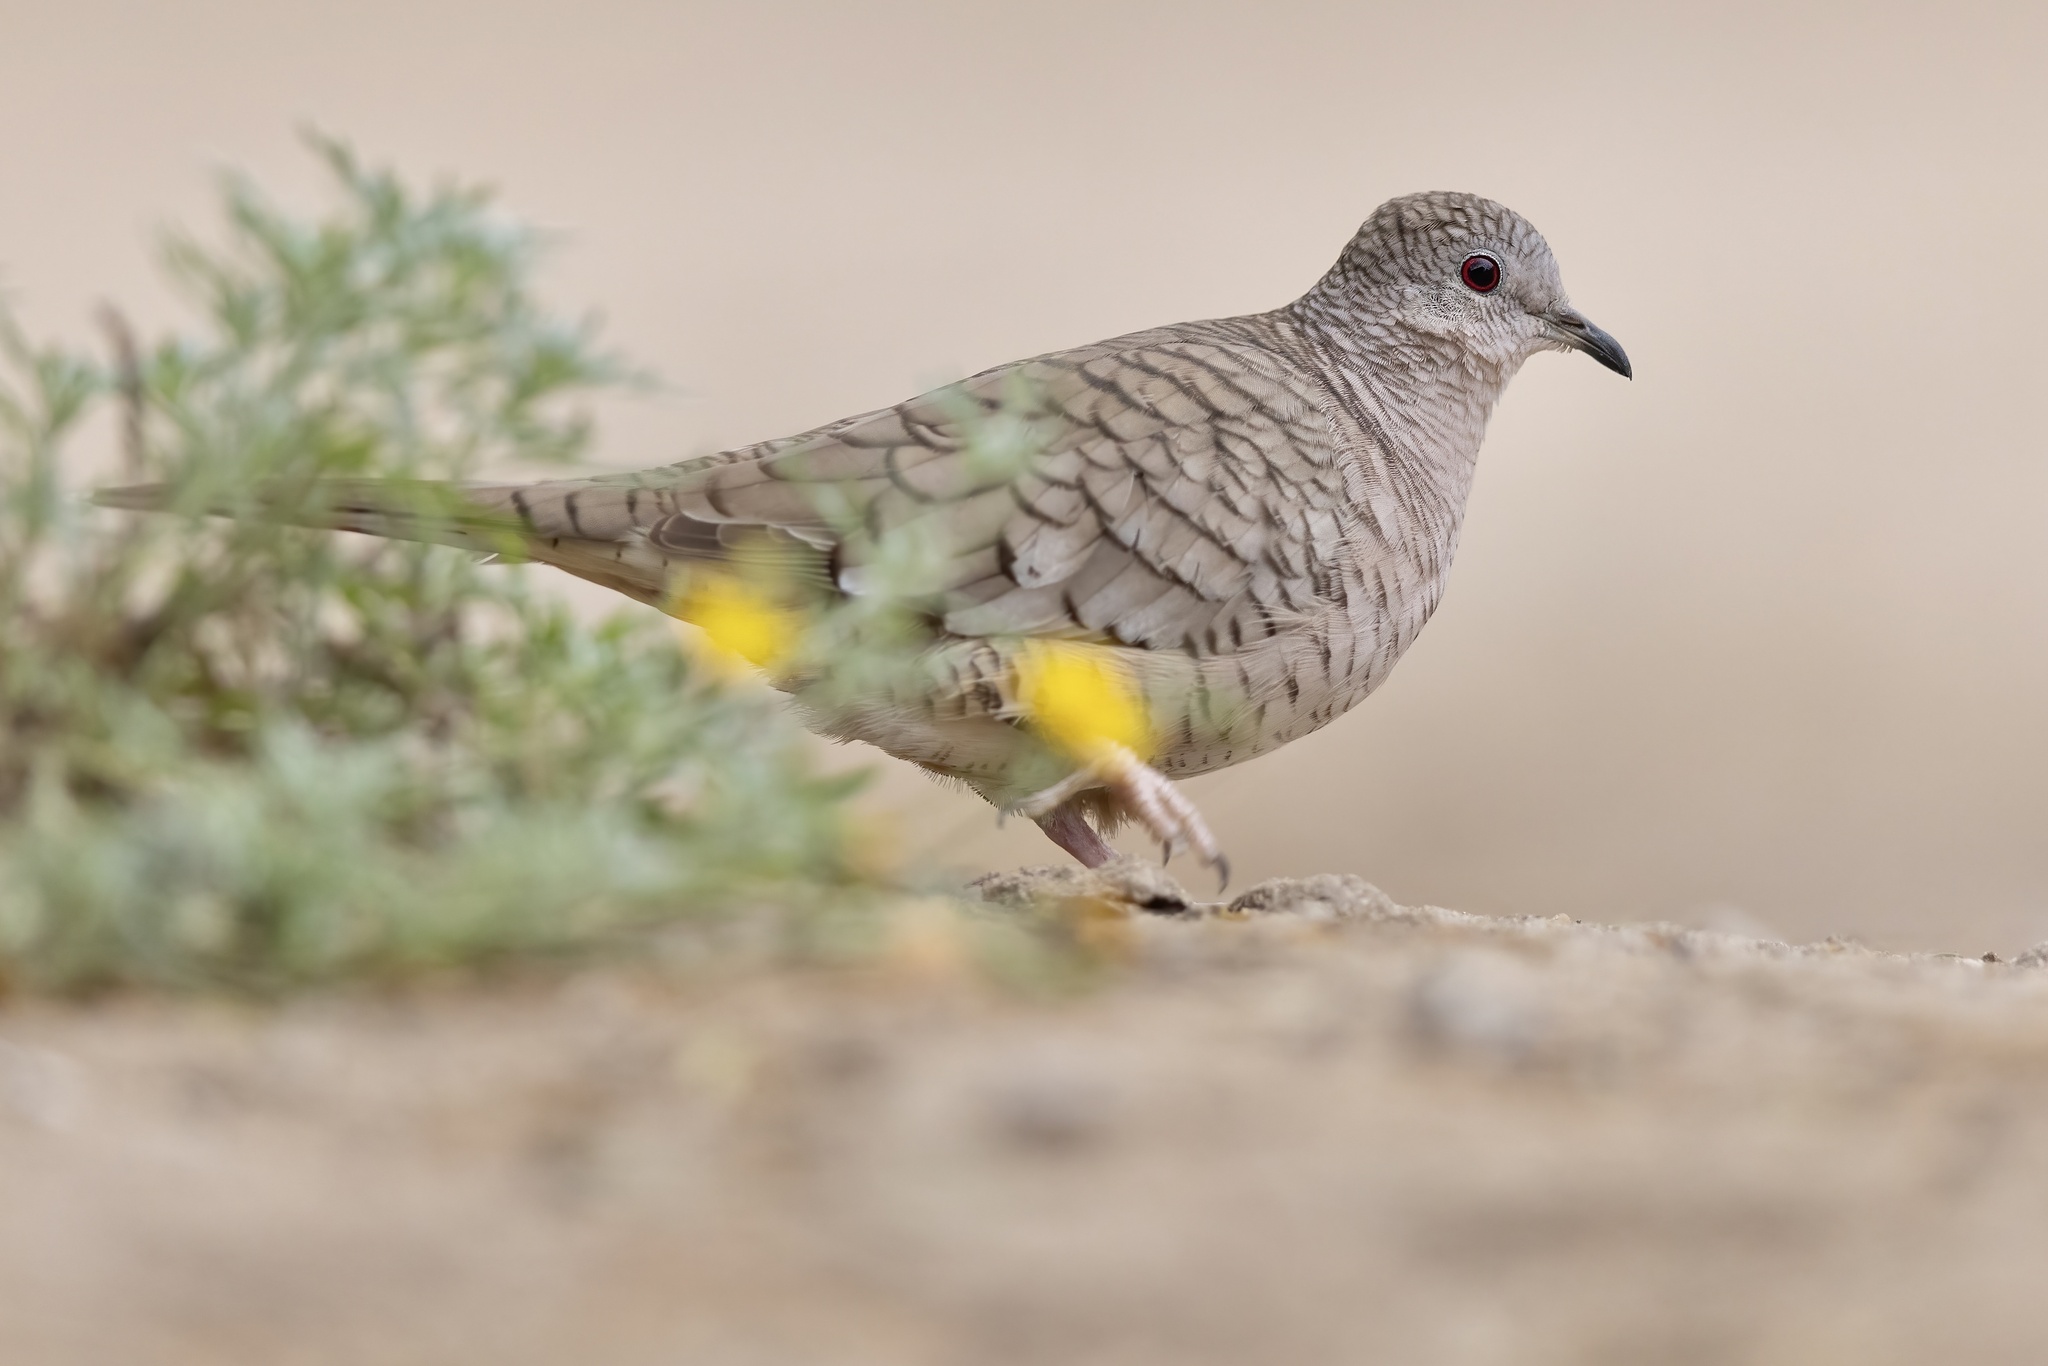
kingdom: Animalia
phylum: Chordata
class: Aves
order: Columbiformes
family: Columbidae
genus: Columbina
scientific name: Columbina inca
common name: Inca dove
